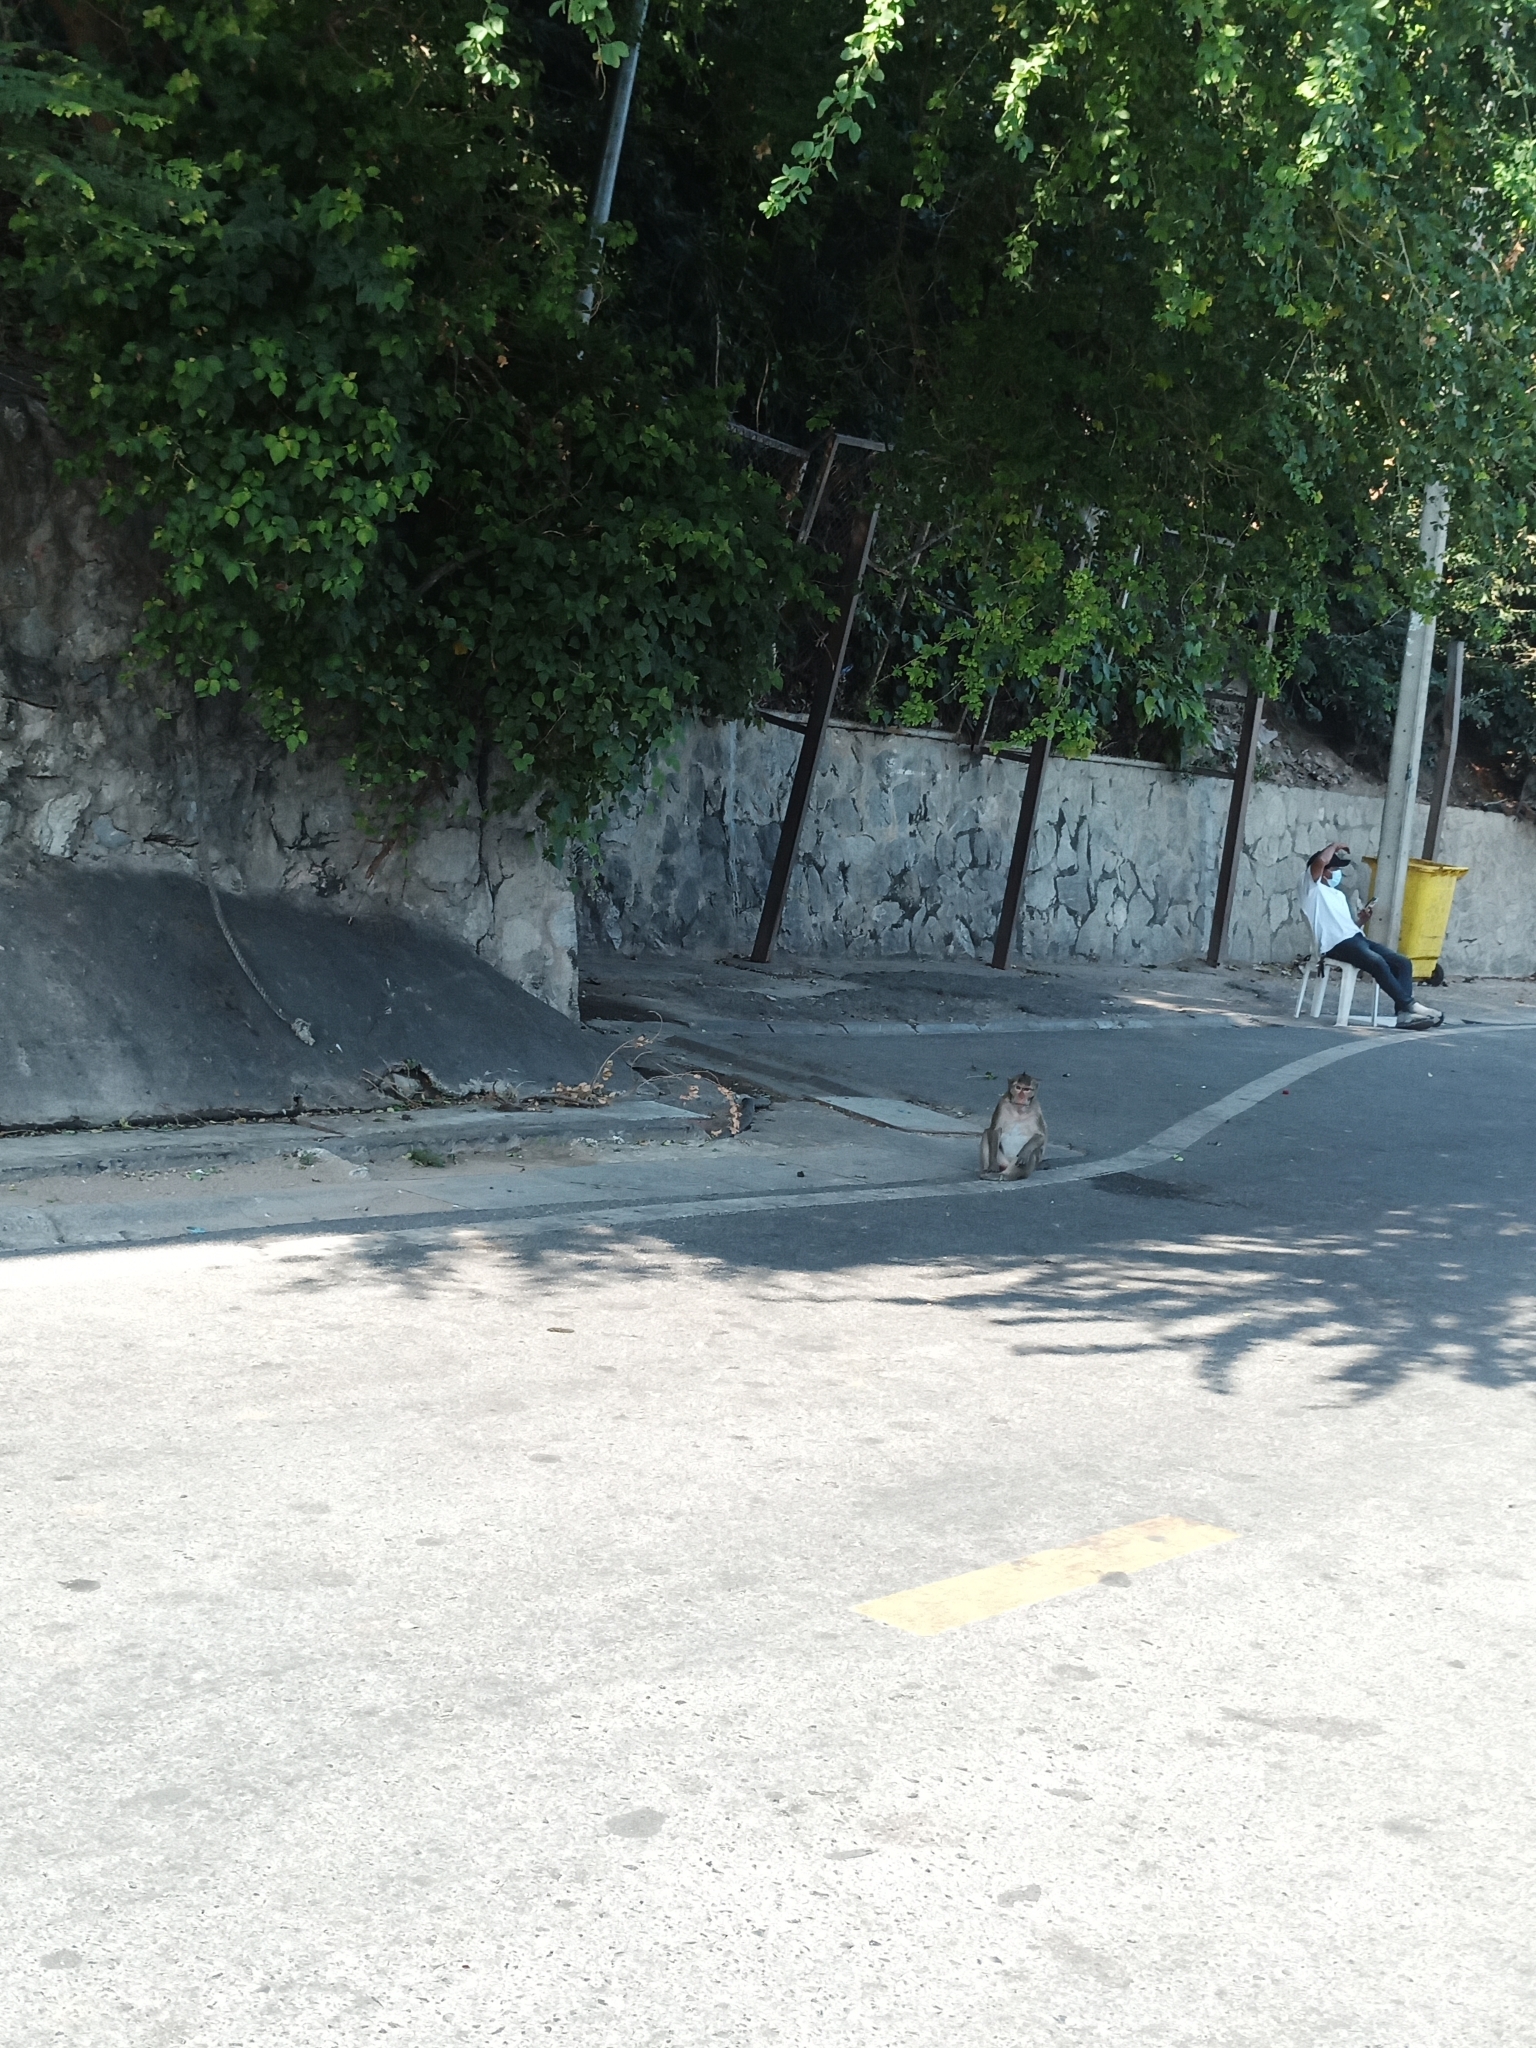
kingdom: Animalia
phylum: Chordata
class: Mammalia
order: Primates
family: Cercopithecidae
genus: Macaca
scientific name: Macaca fascicularis
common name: Crab-eating macaque
